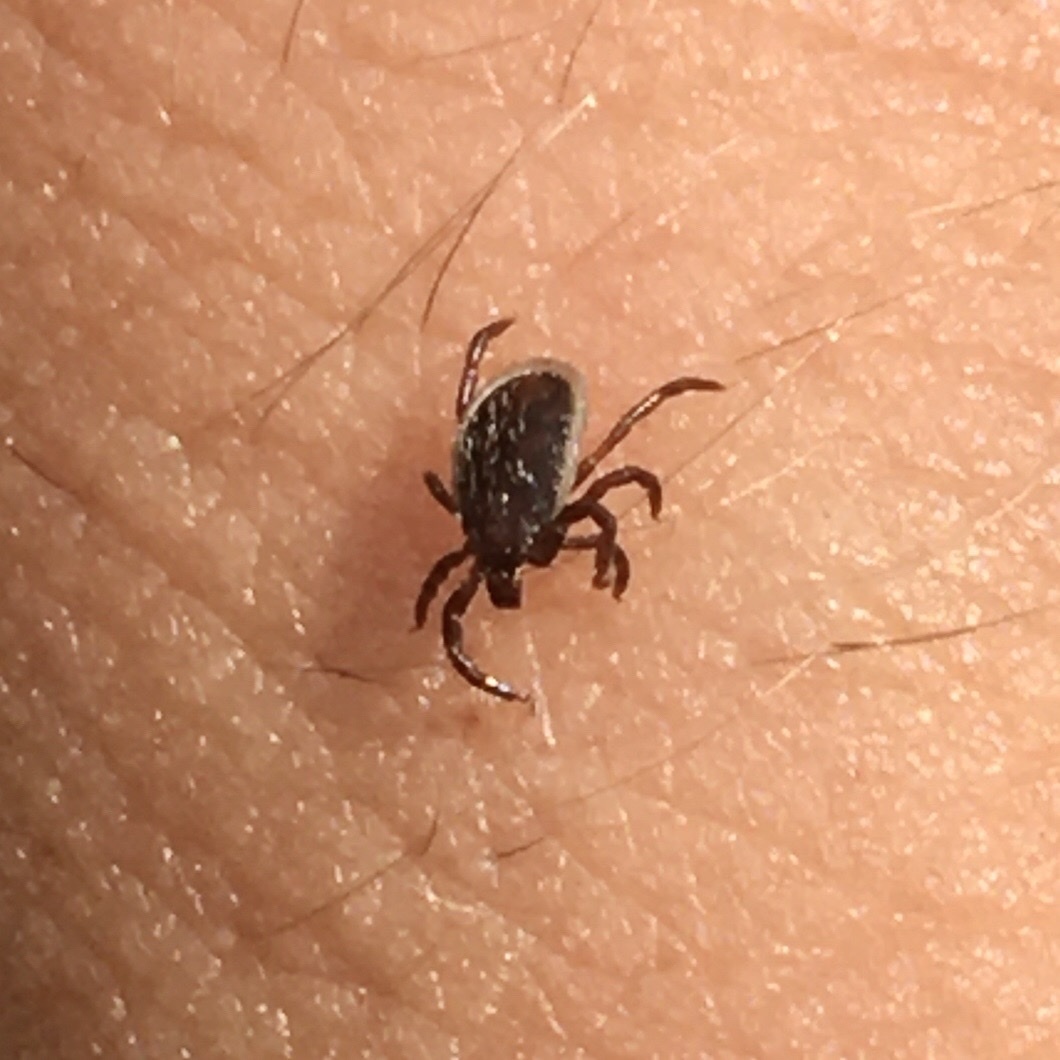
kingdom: Animalia
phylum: Arthropoda
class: Arachnida
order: Ixodida
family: Ixodidae
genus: Ixodes
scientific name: Ixodes ricinus
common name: Castor bean tick
